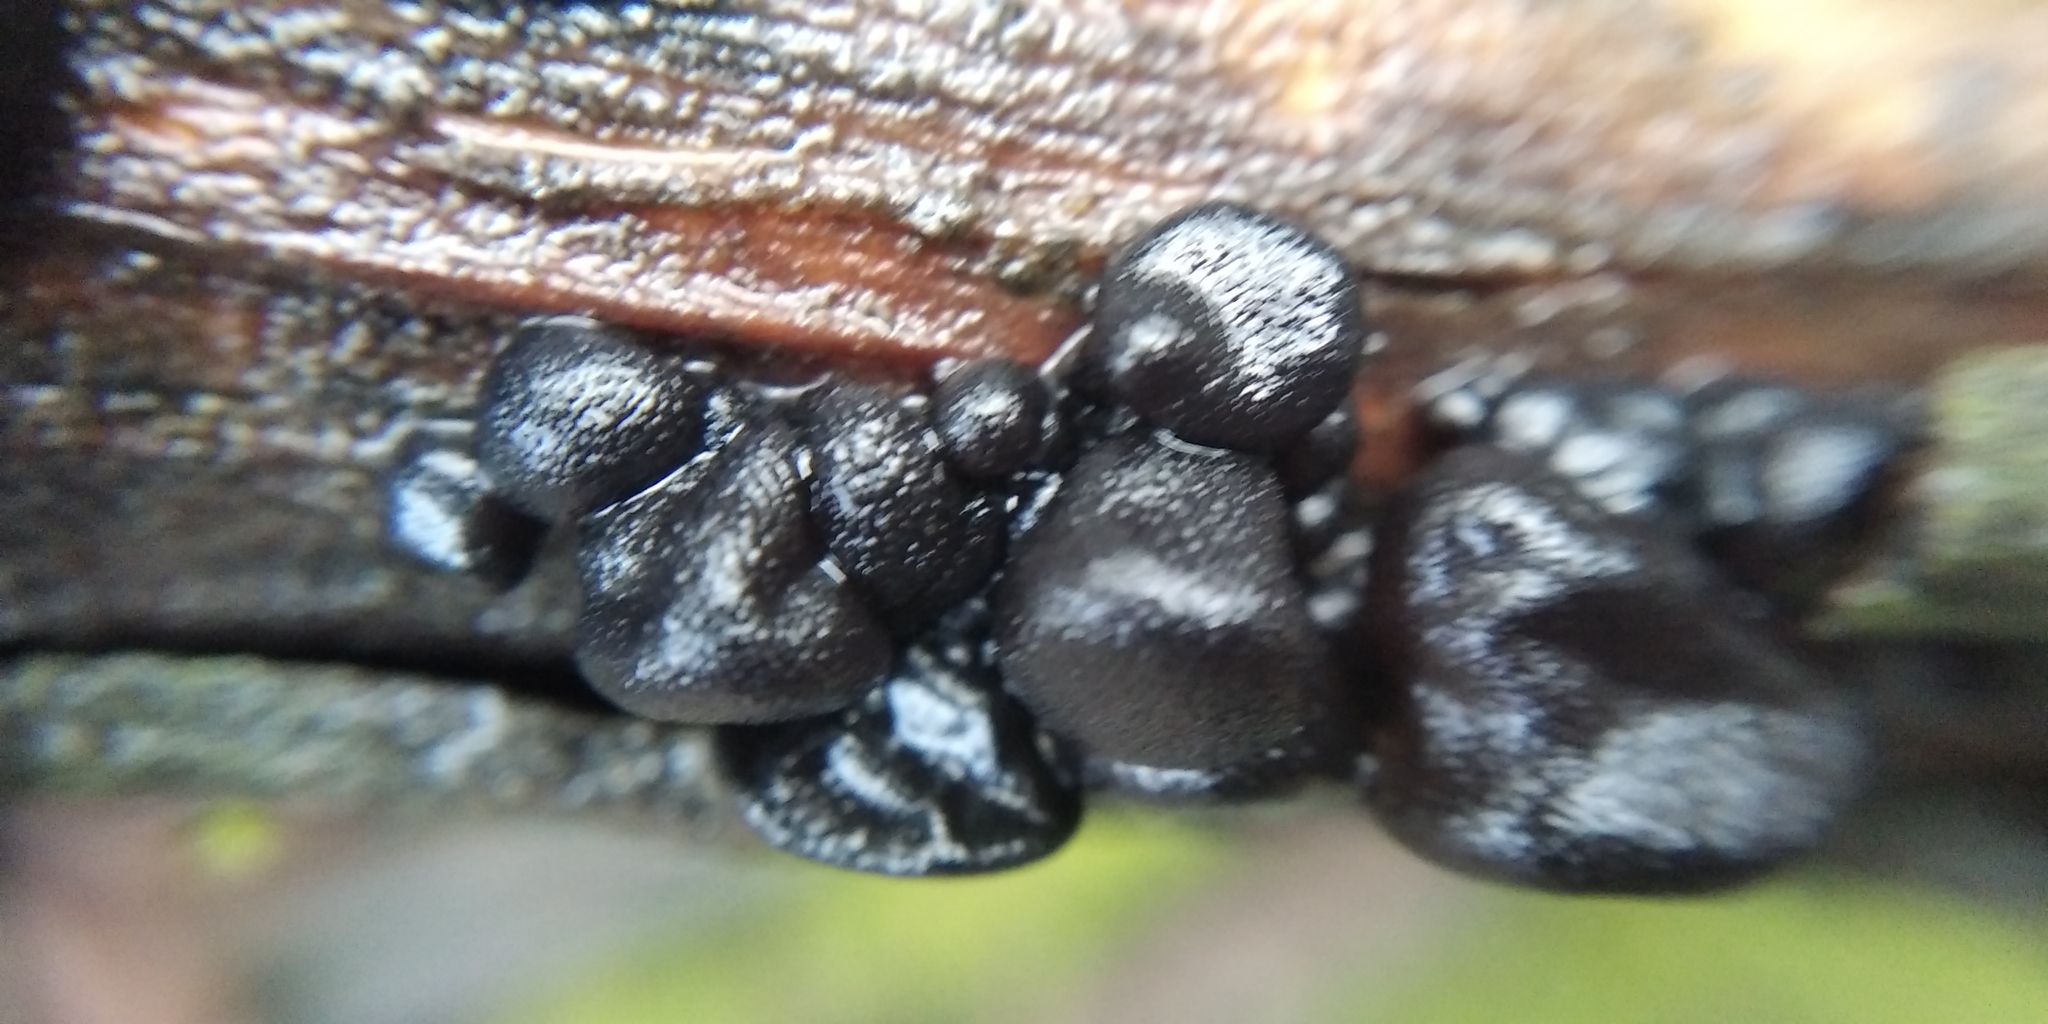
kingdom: Fungi
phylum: Basidiomycota
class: Agaricomycetes
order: Auriculariales
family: Auriculariaceae
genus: Exidia
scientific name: Exidia glandulosa
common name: Witches' butter
